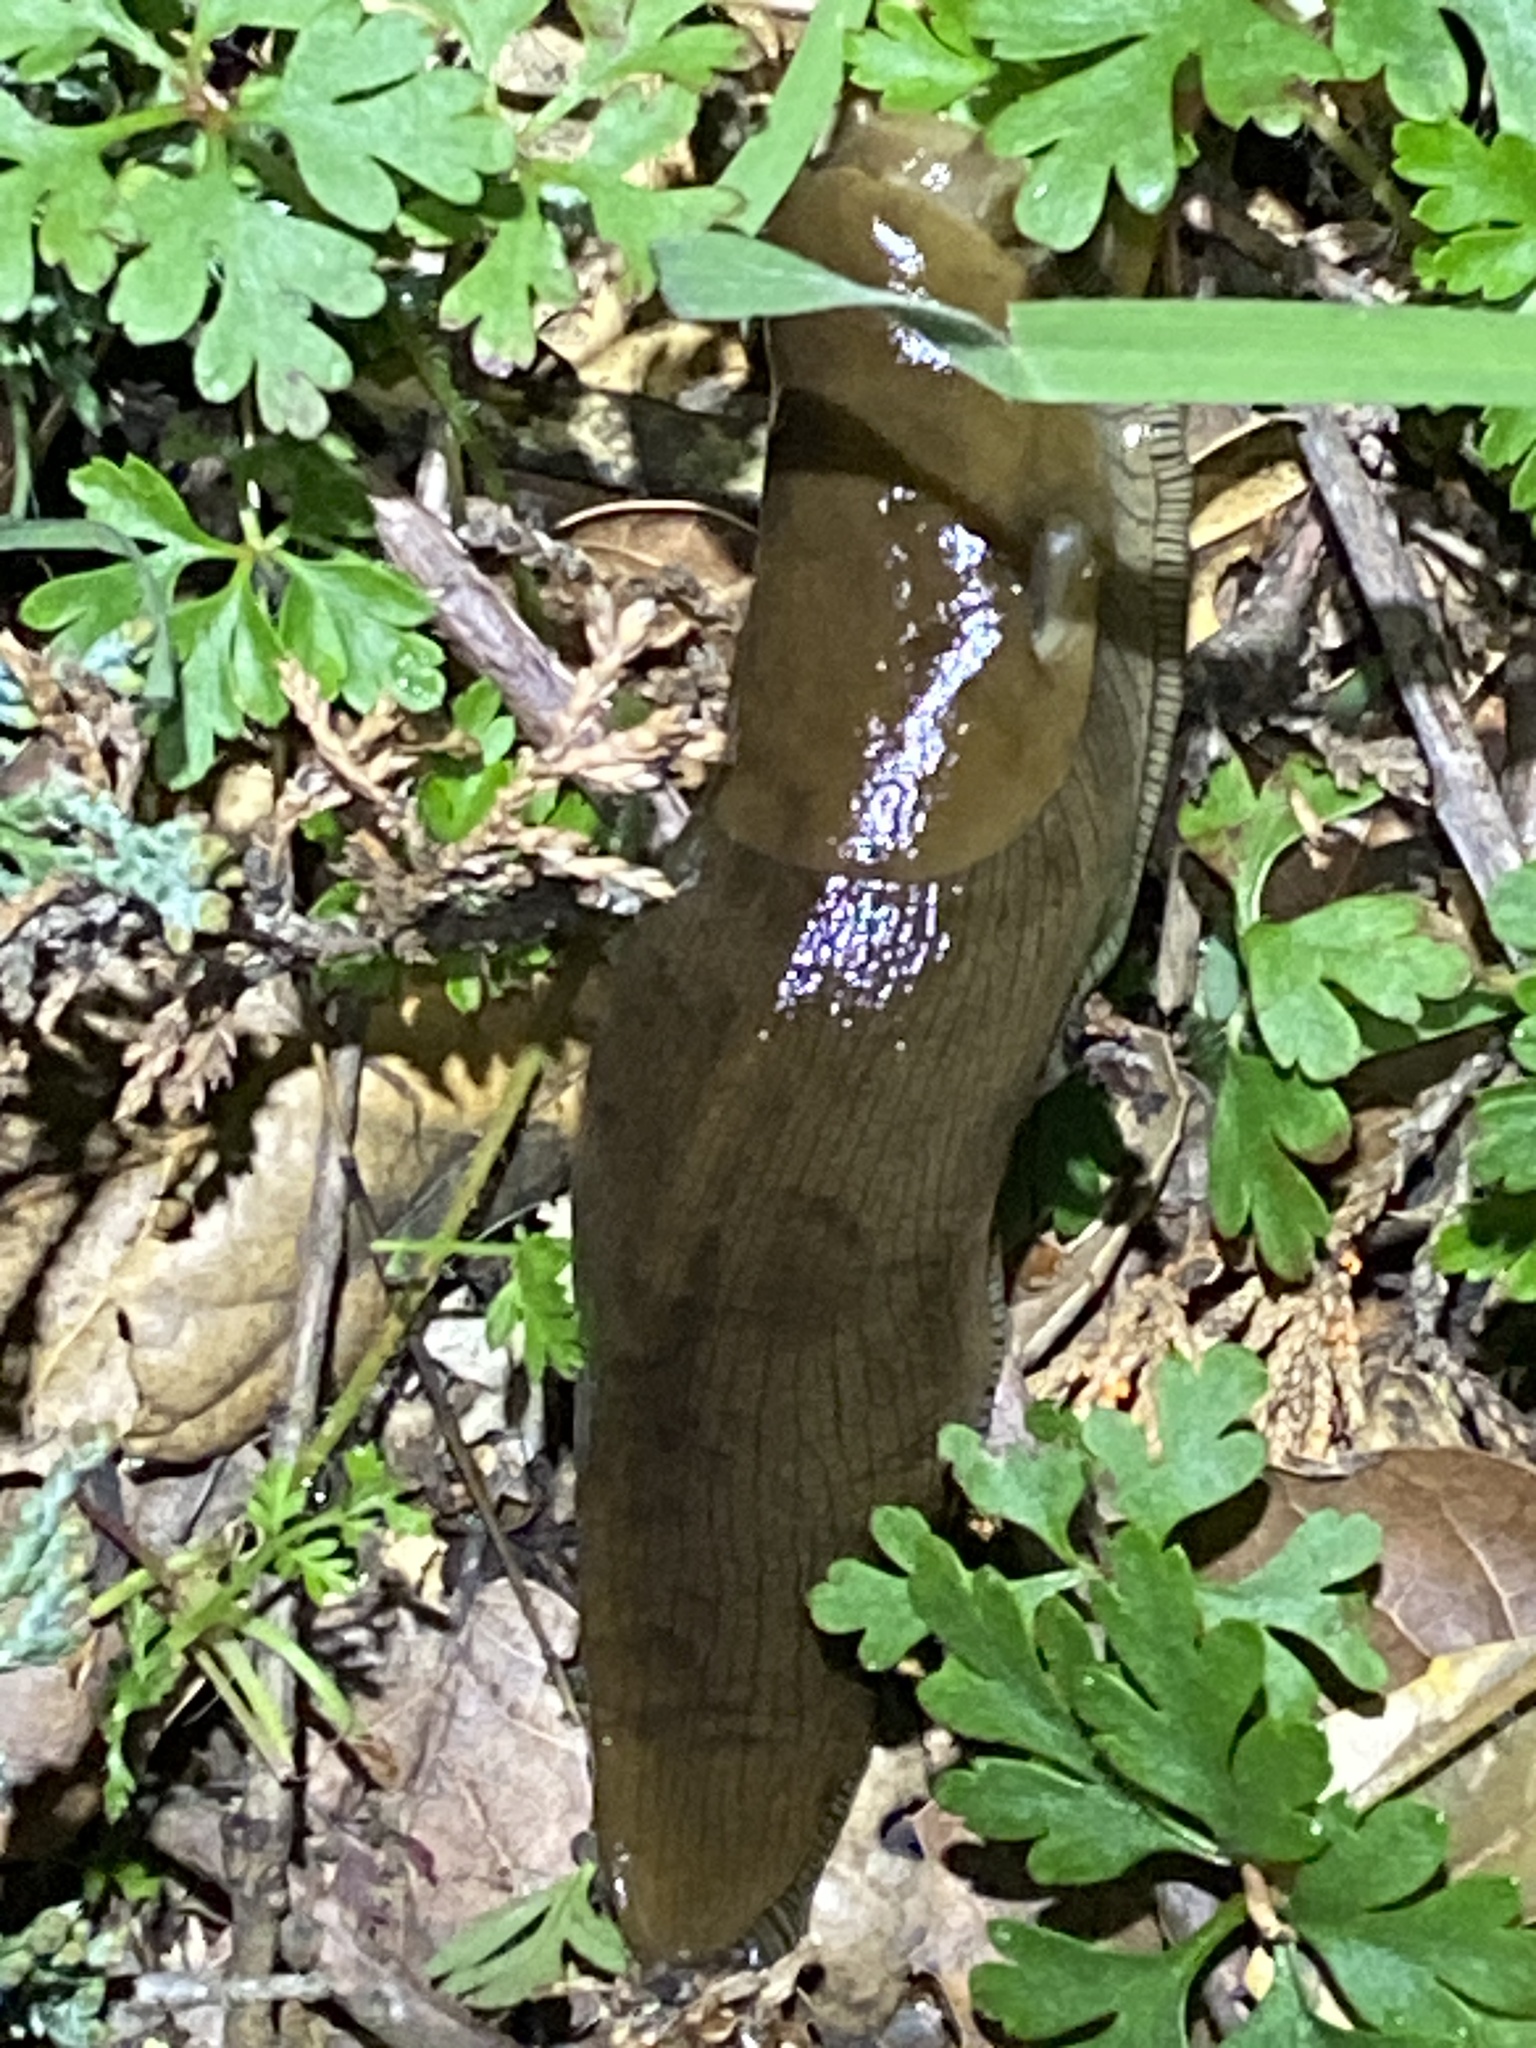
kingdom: Animalia
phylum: Mollusca
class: Gastropoda
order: Stylommatophora
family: Ariolimacidae
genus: Ariolimax
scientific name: Ariolimax buttoni
